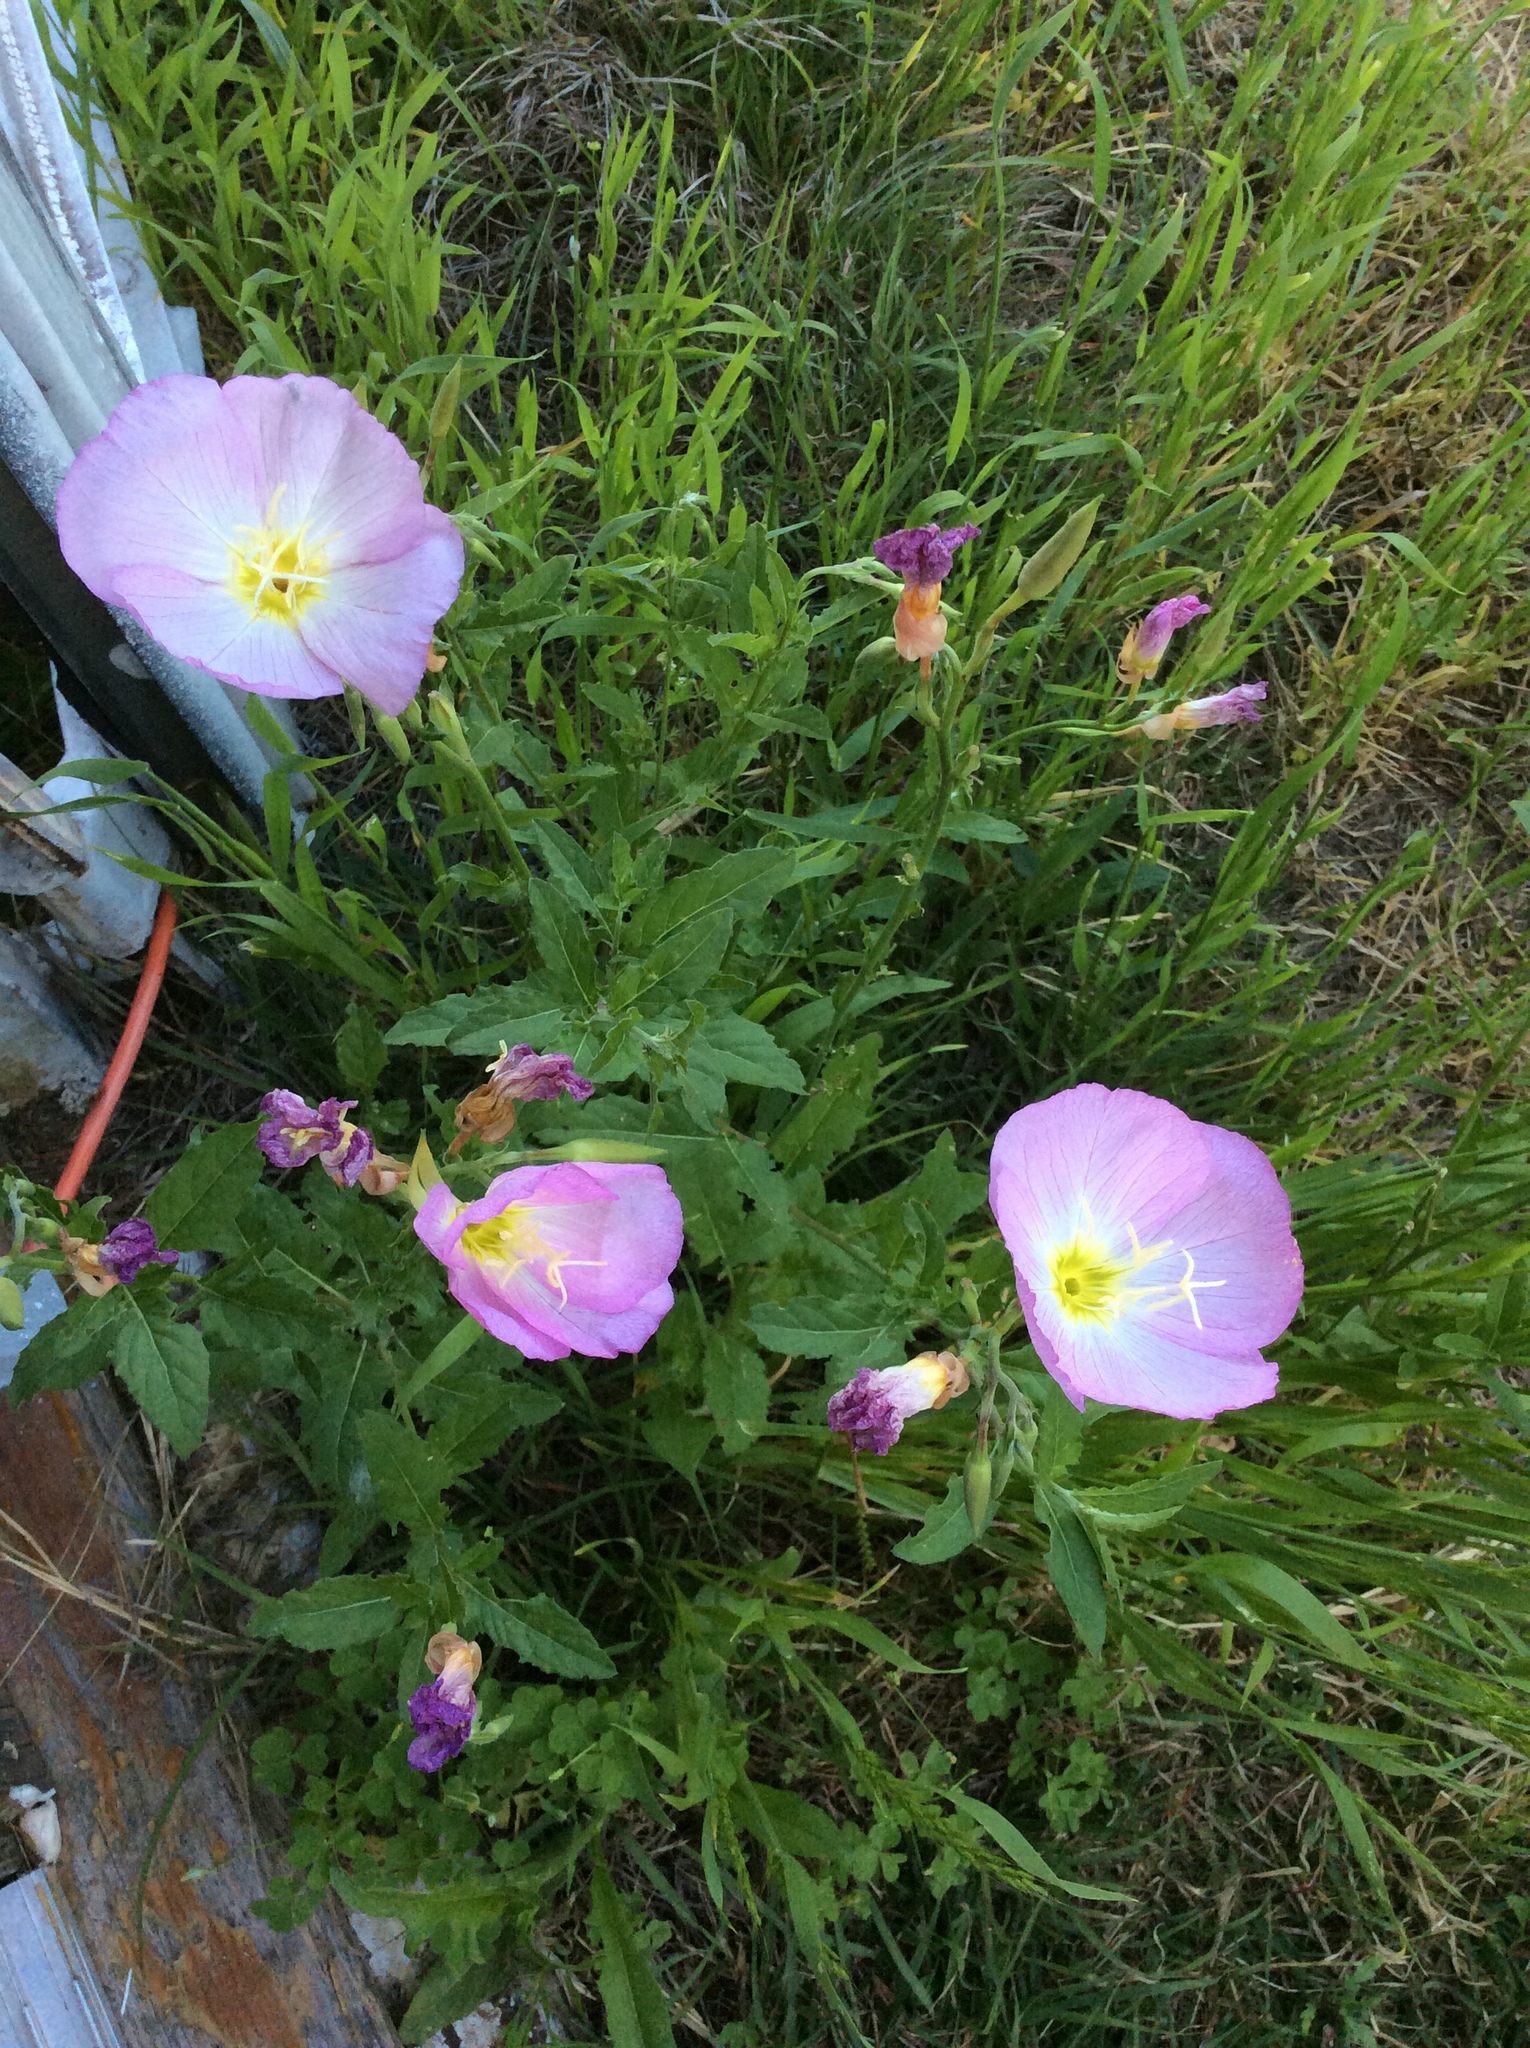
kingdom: Plantae
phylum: Tracheophyta
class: Magnoliopsida
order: Myrtales
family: Onagraceae
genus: Oenothera
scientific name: Oenothera speciosa
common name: White evening-primrose
